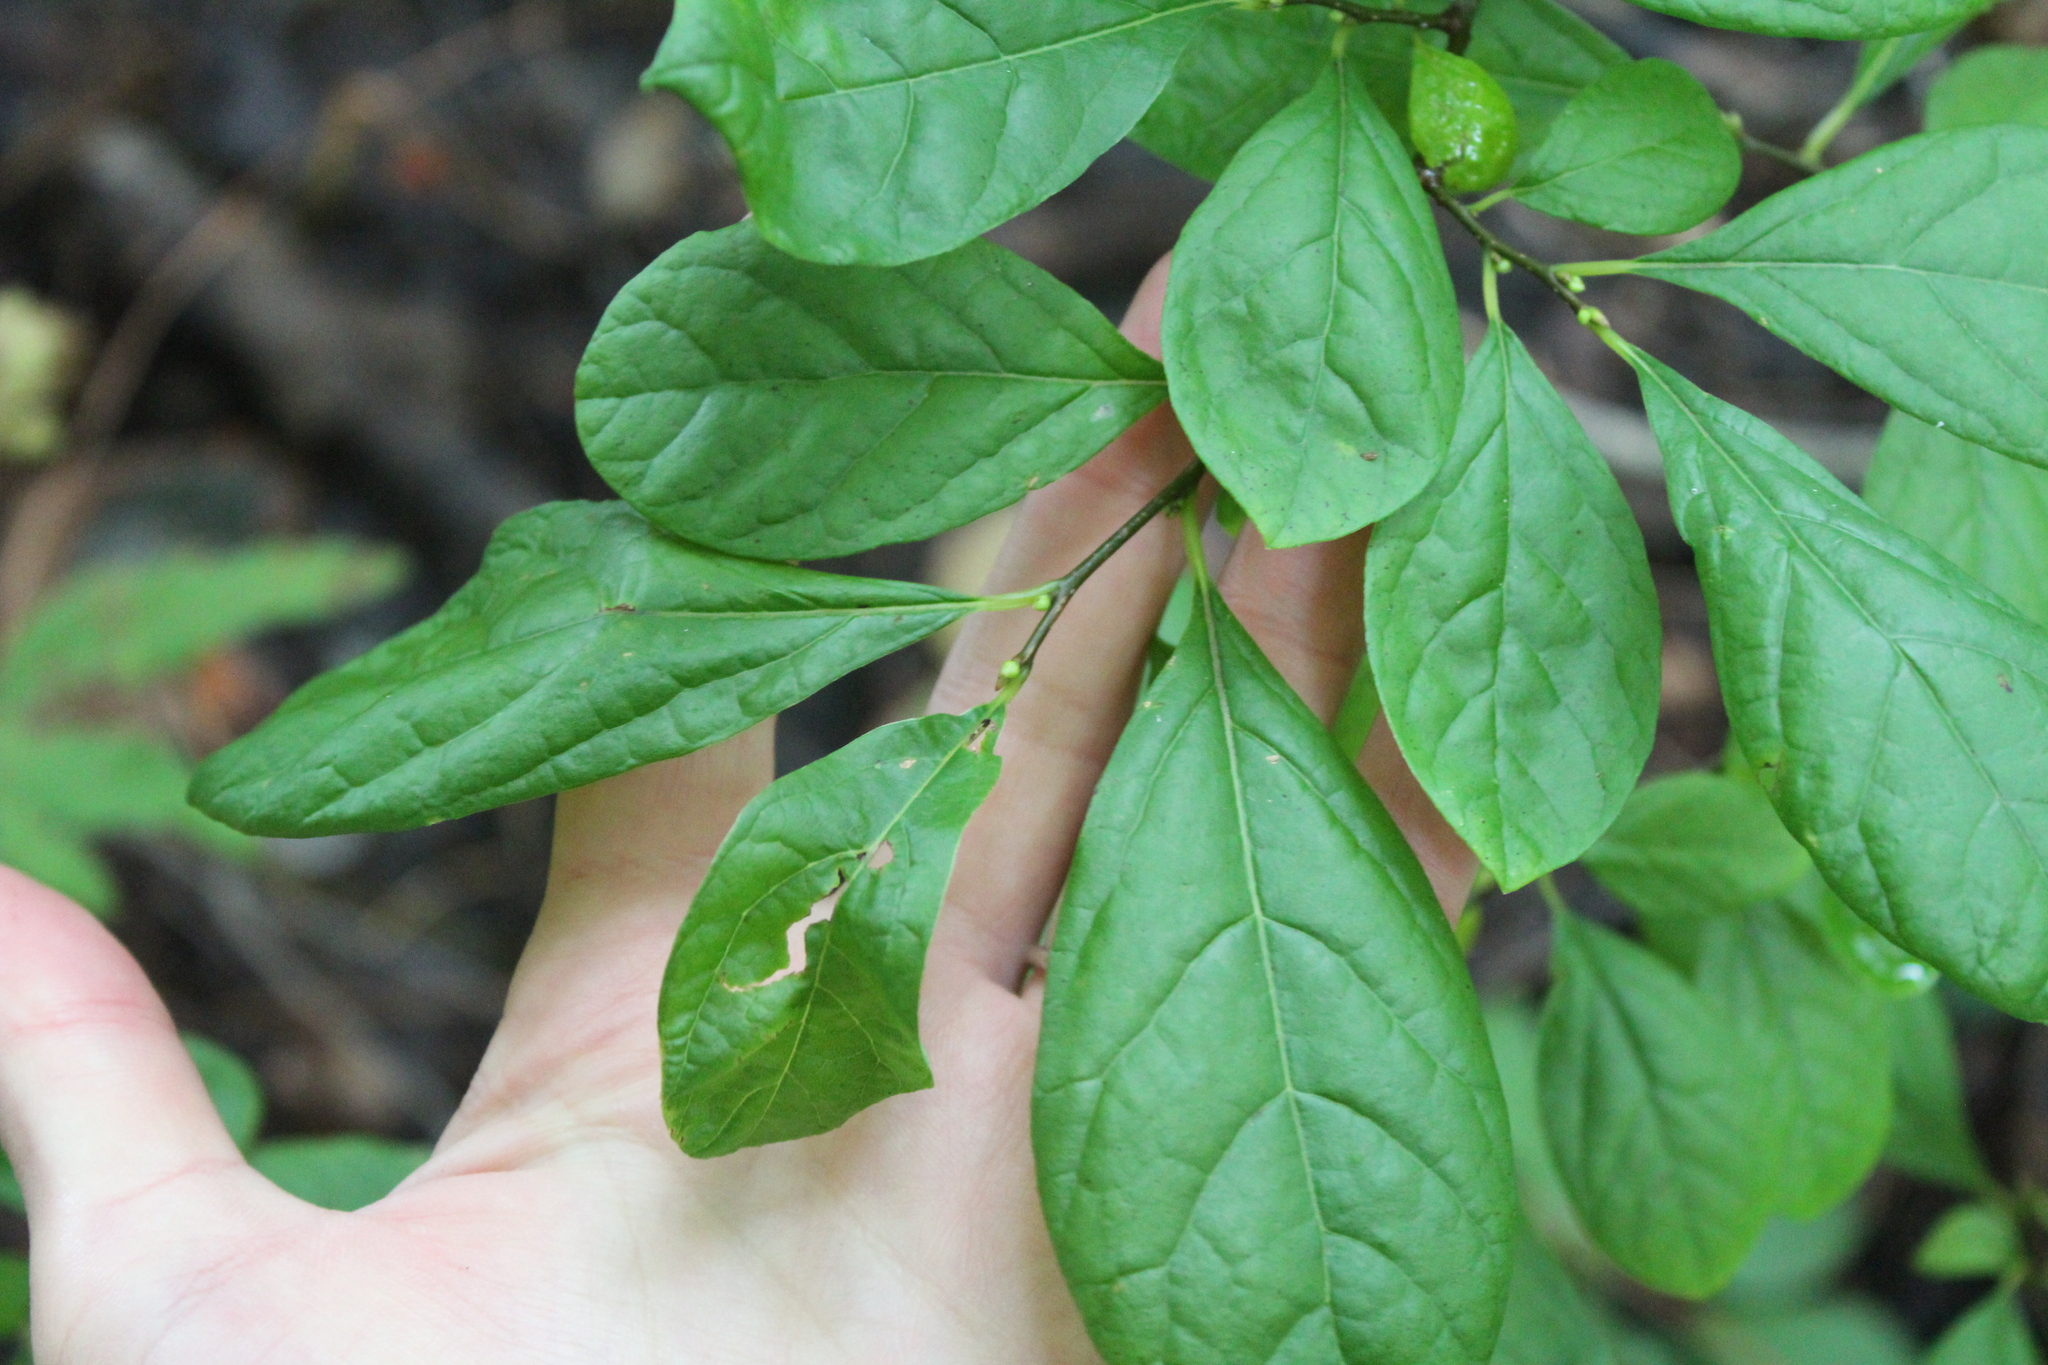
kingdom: Plantae
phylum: Tracheophyta
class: Magnoliopsida
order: Laurales
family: Lauraceae
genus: Lindera
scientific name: Lindera benzoin
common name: Spicebush
